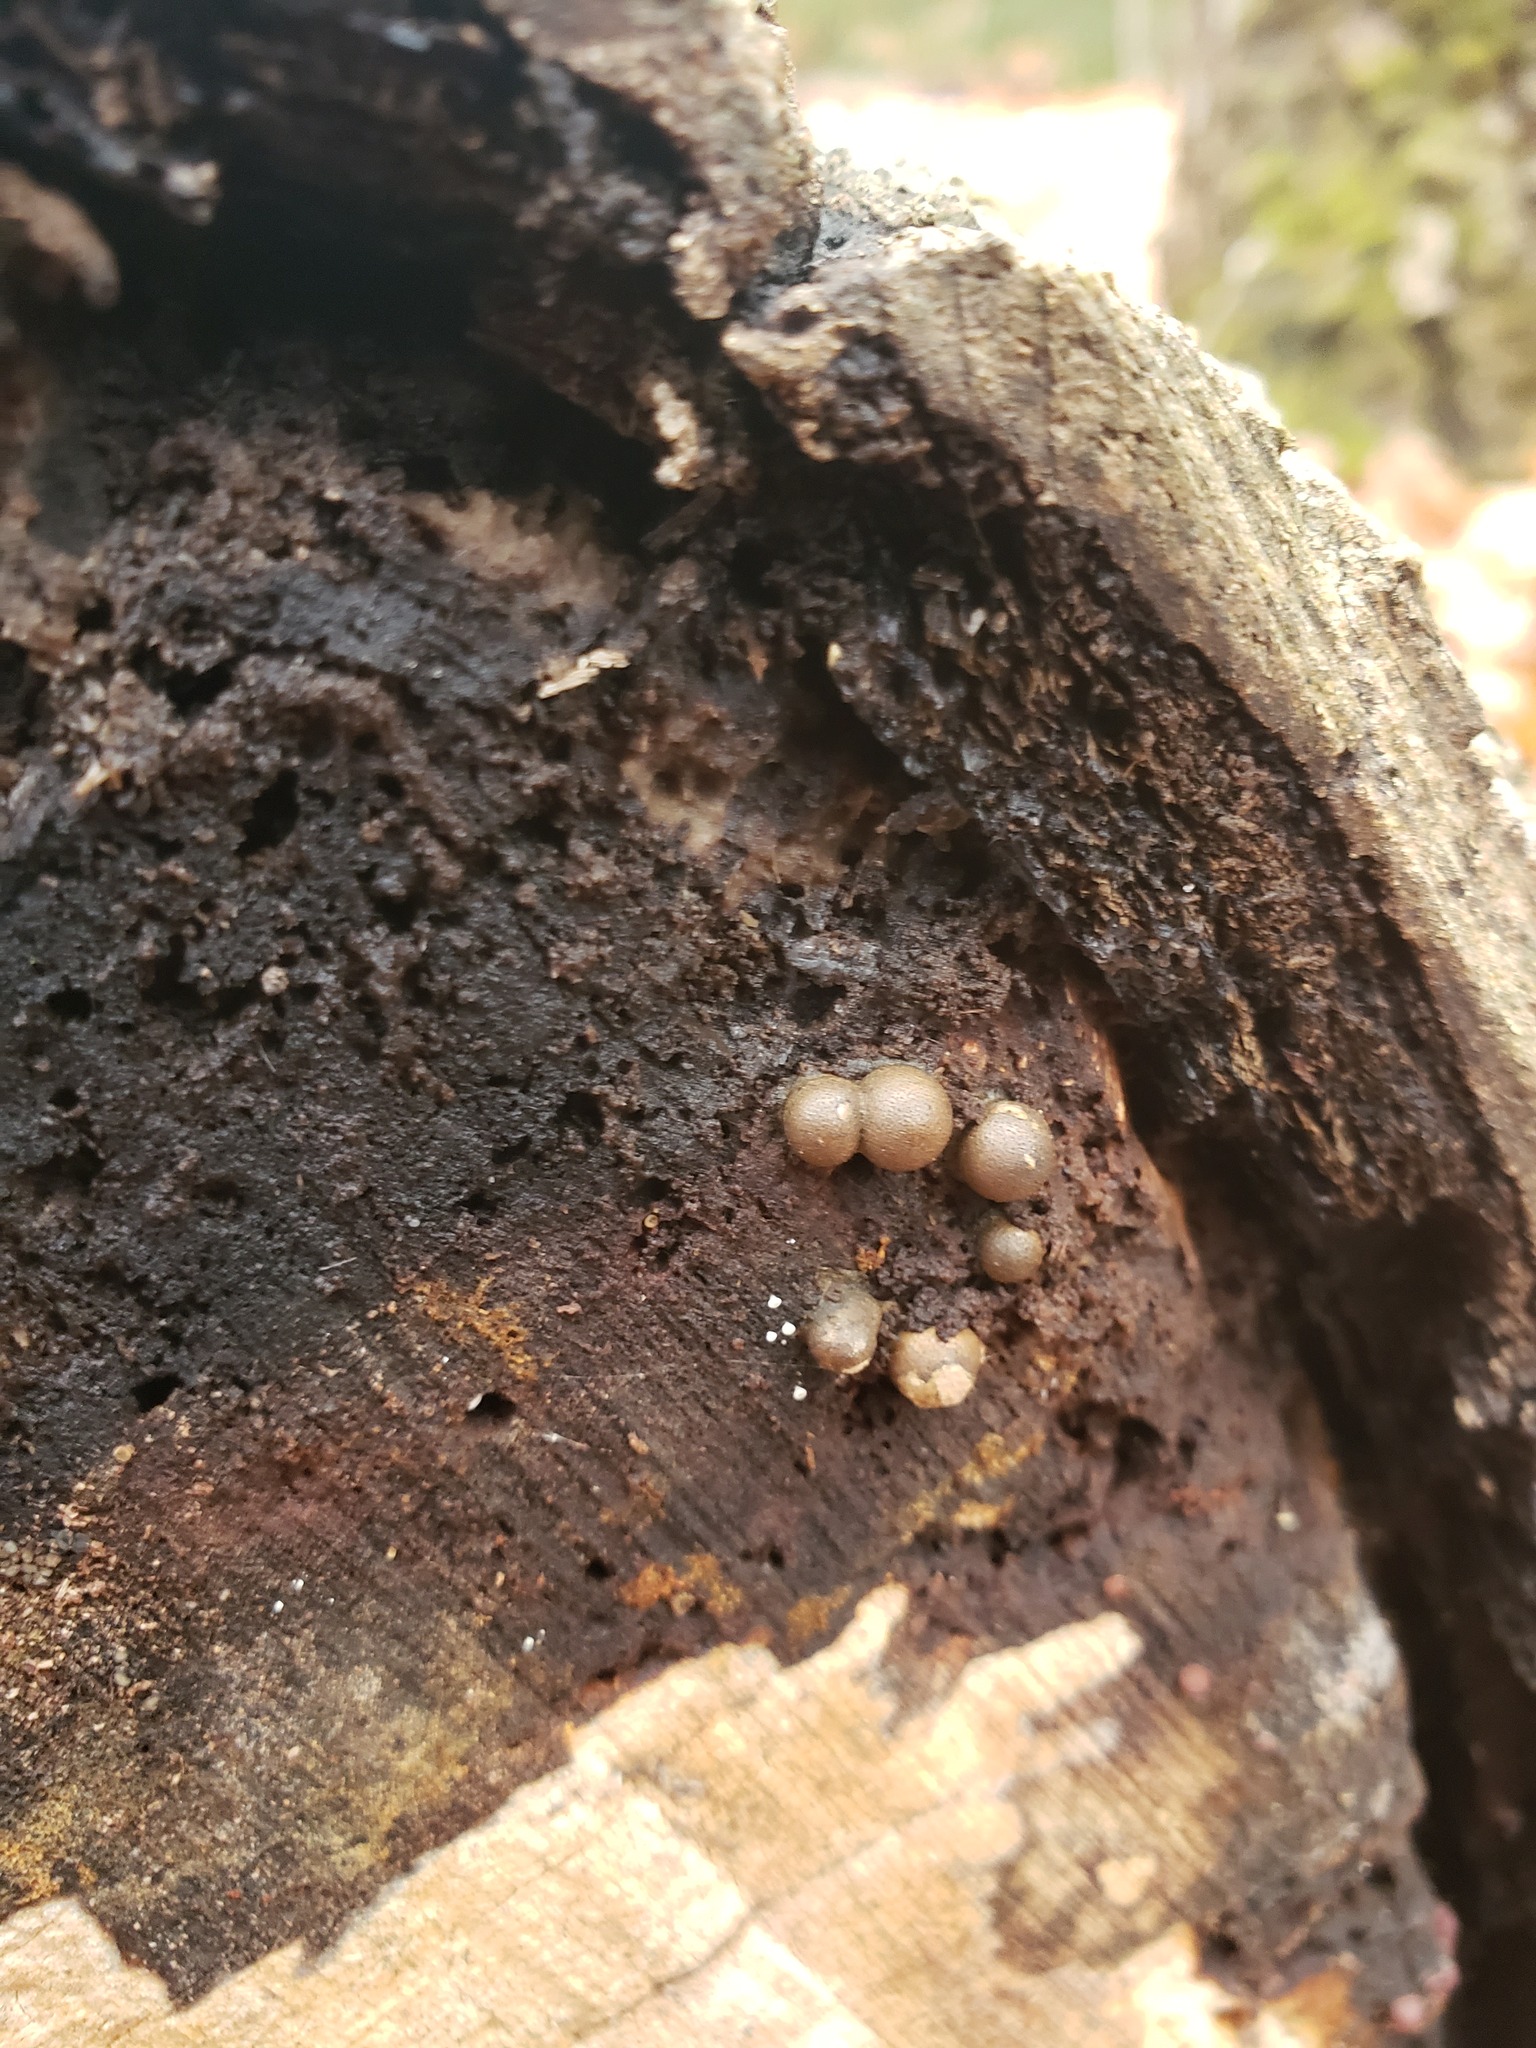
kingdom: Protozoa
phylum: Mycetozoa
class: Myxomycetes
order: Cribrariales
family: Tubiferaceae
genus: Lycogala
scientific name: Lycogala epidendrum
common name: Wolf's milk
